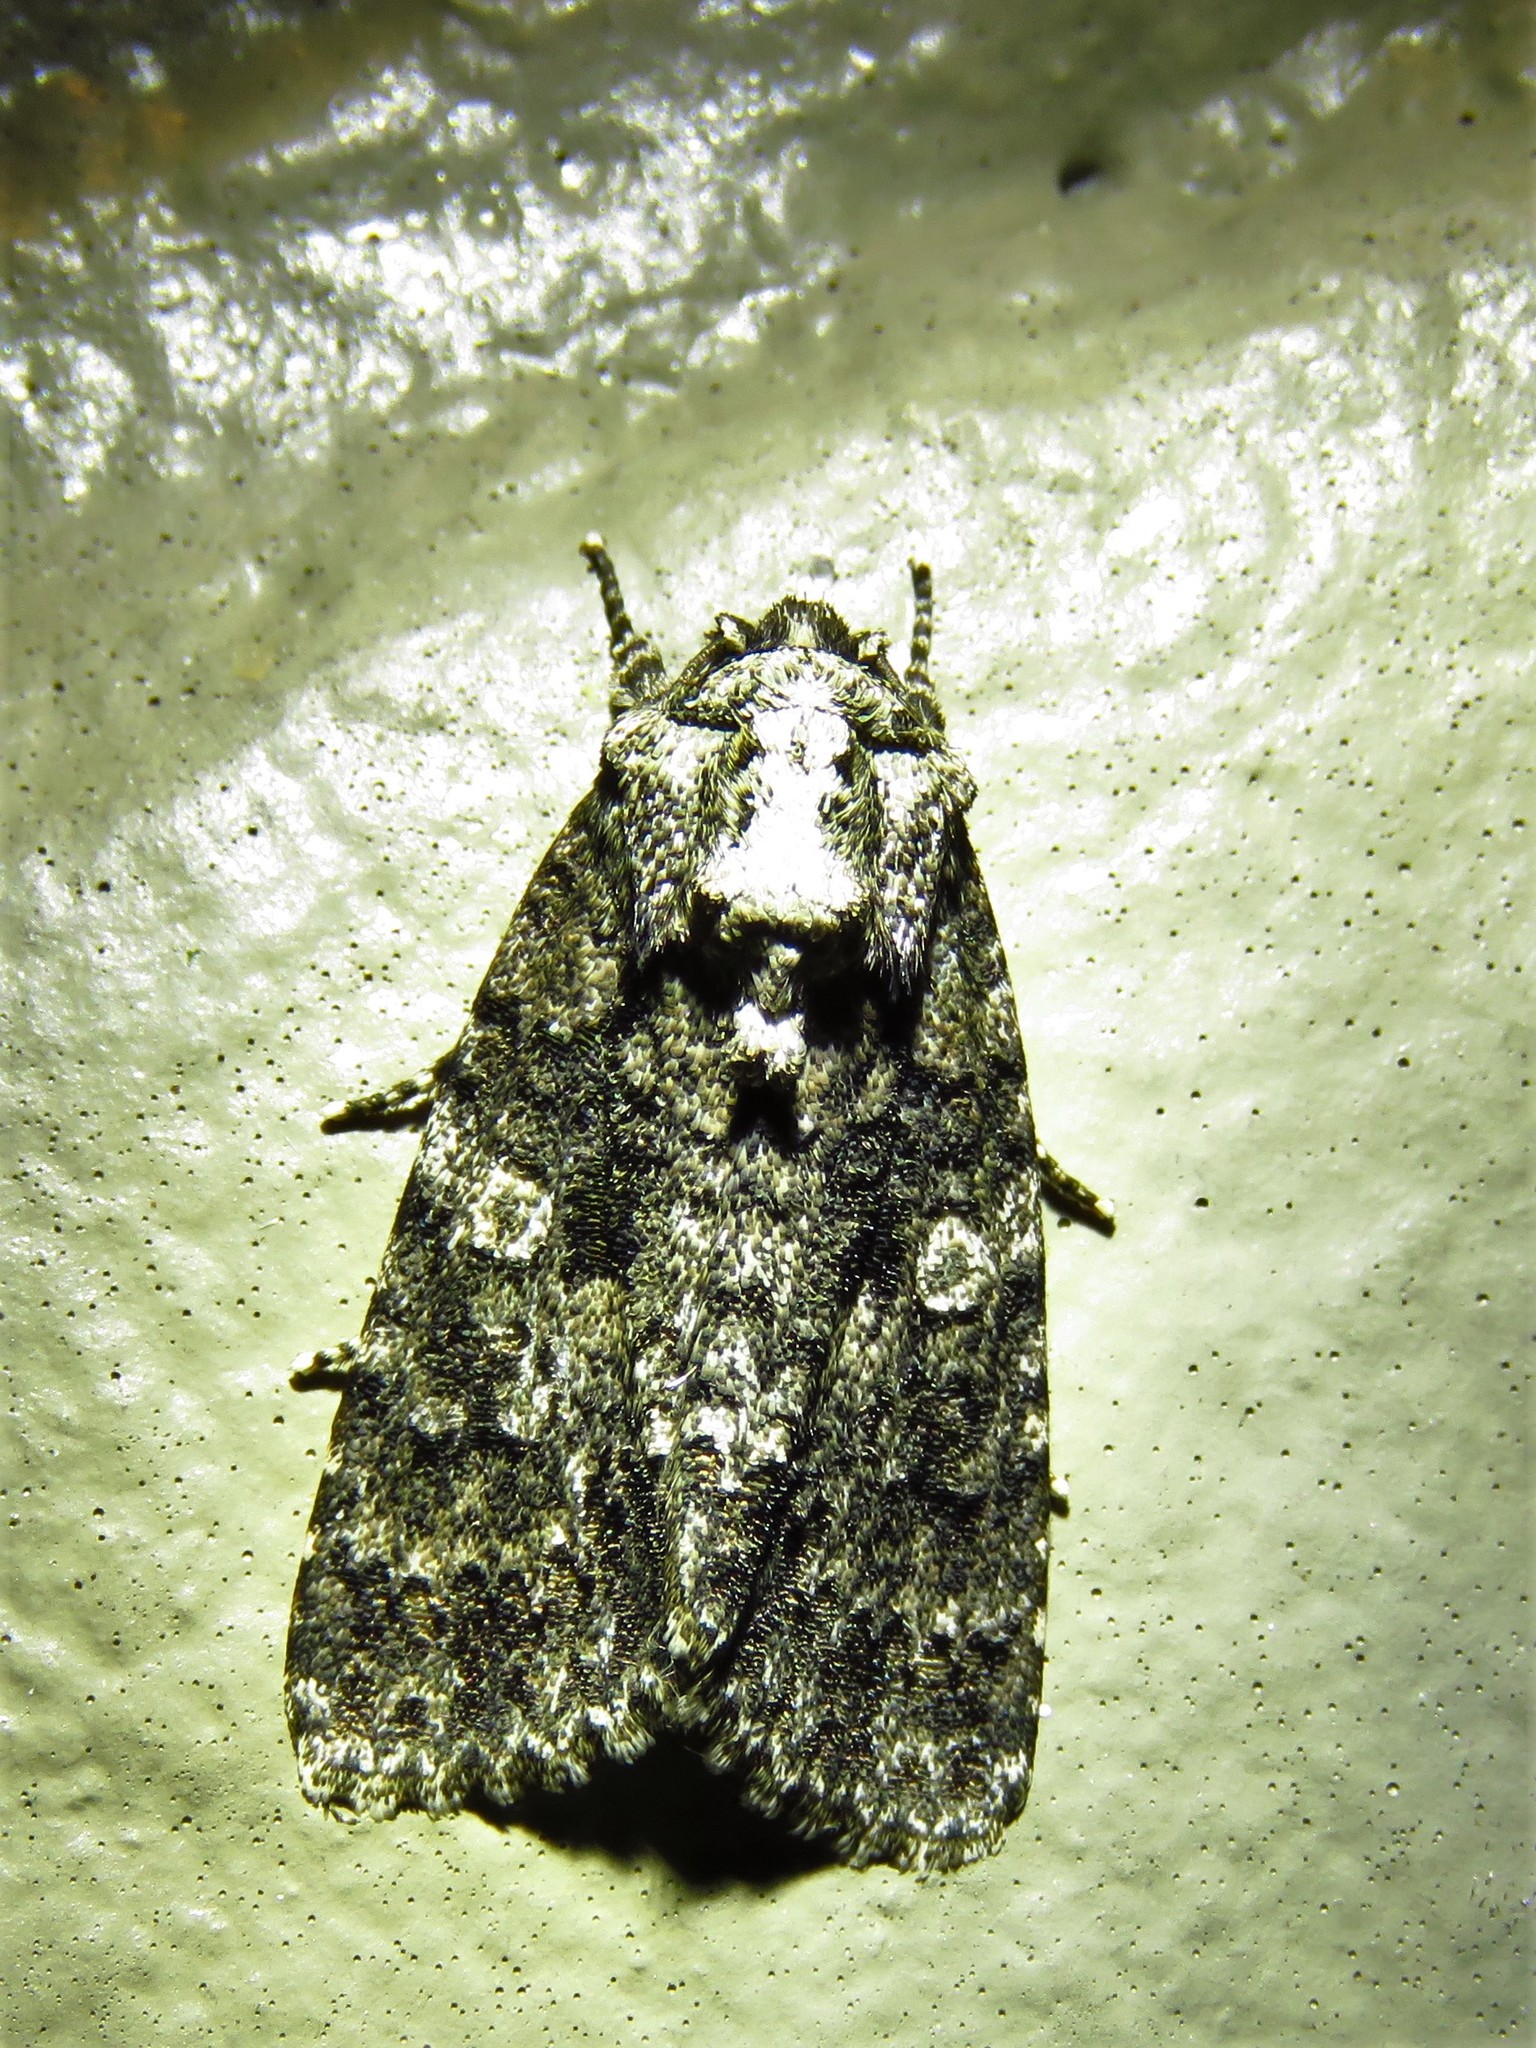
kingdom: Animalia
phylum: Arthropoda
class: Insecta
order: Lepidoptera
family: Noctuidae
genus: Acronicta
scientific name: Acronicta afflicta
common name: Afflicted dagger moth
